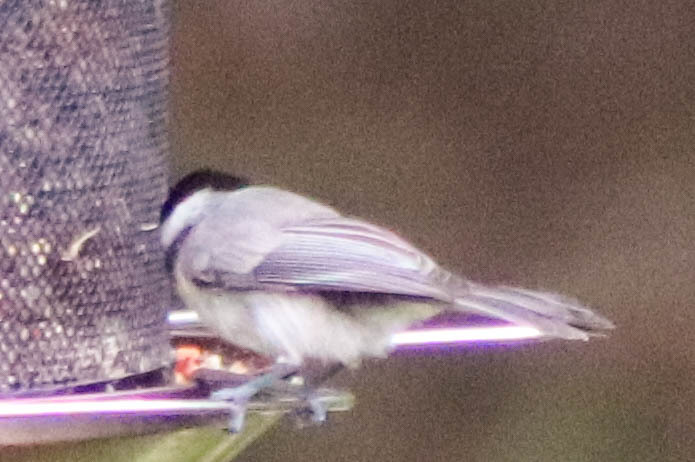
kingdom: Animalia
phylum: Chordata
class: Aves
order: Passeriformes
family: Paridae
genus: Poecile
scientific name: Poecile carolinensis
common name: Carolina chickadee
